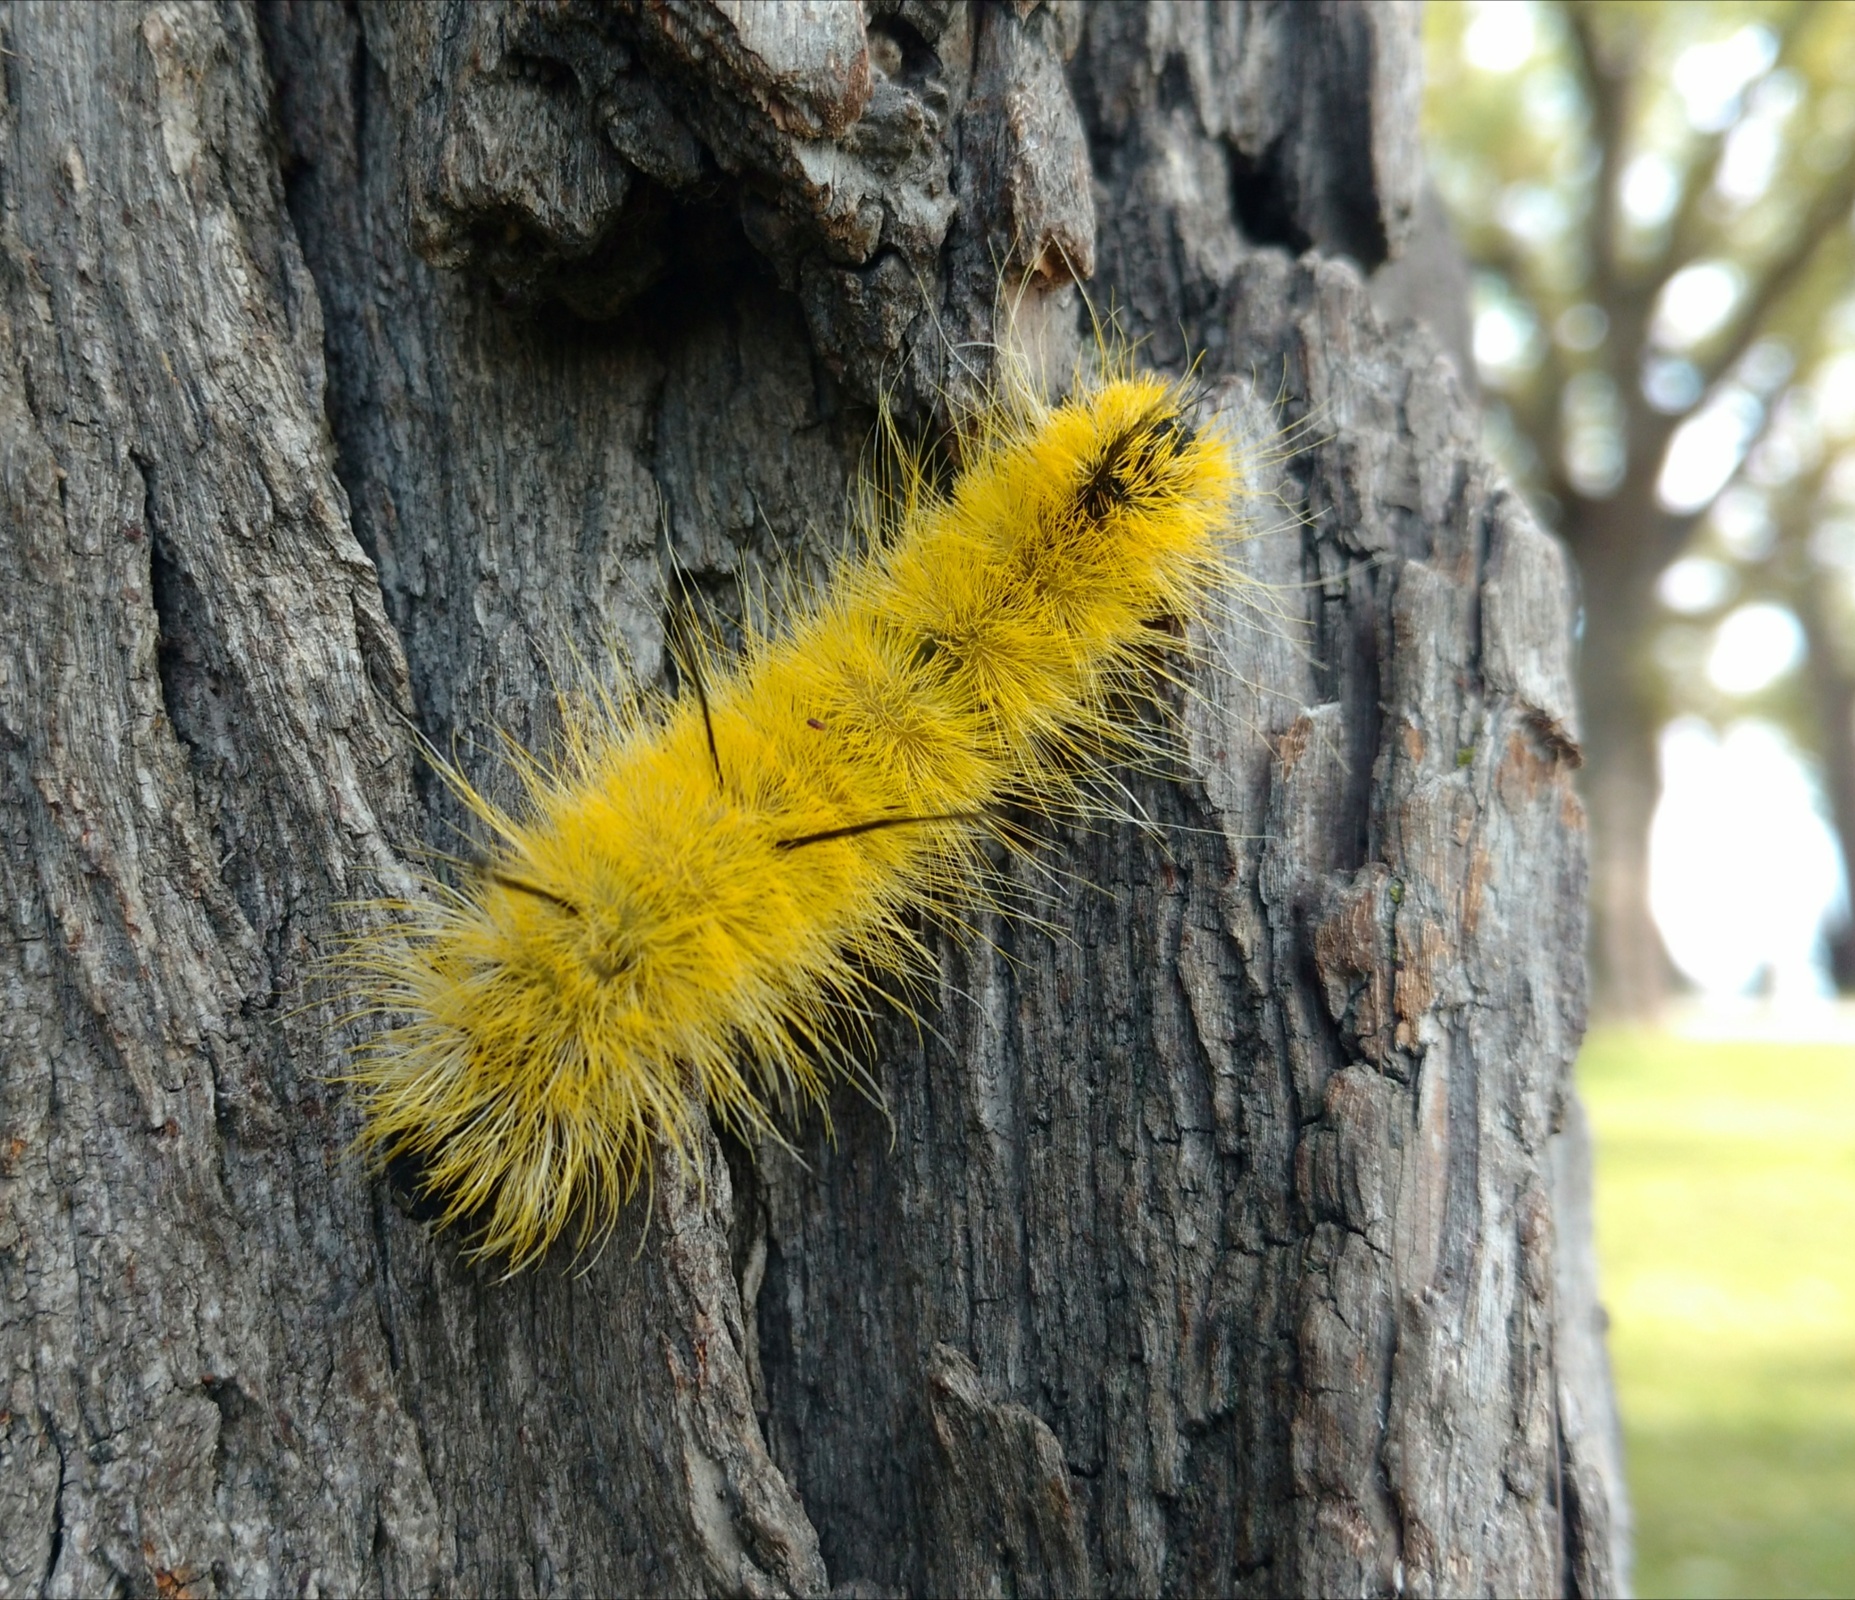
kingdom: Animalia
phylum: Arthropoda
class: Insecta
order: Lepidoptera
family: Noctuidae
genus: Acronicta
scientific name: Acronicta americana
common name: American dagger
